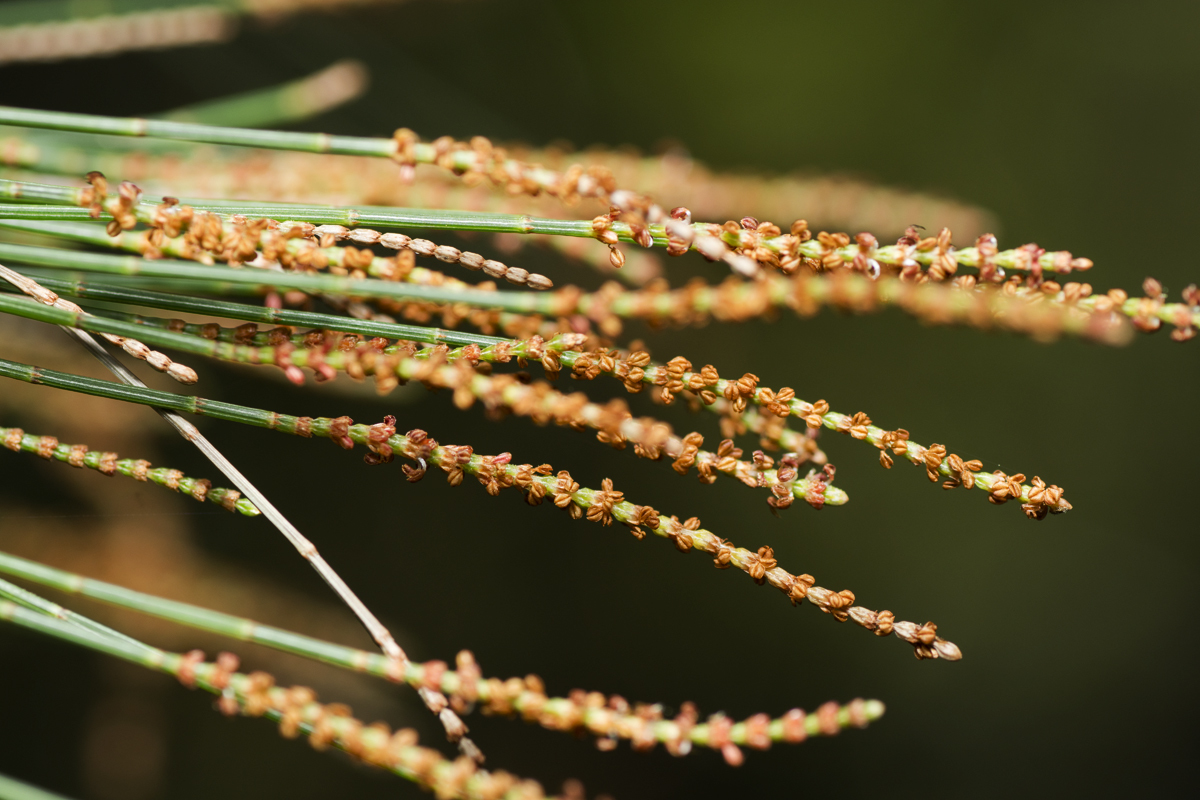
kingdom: Plantae
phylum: Tracheophyta
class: Magnoliopsida
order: Fagales
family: Casuarinaceae
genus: Allocasuarina
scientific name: Allocasuarina littoralis
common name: Black she-oak
